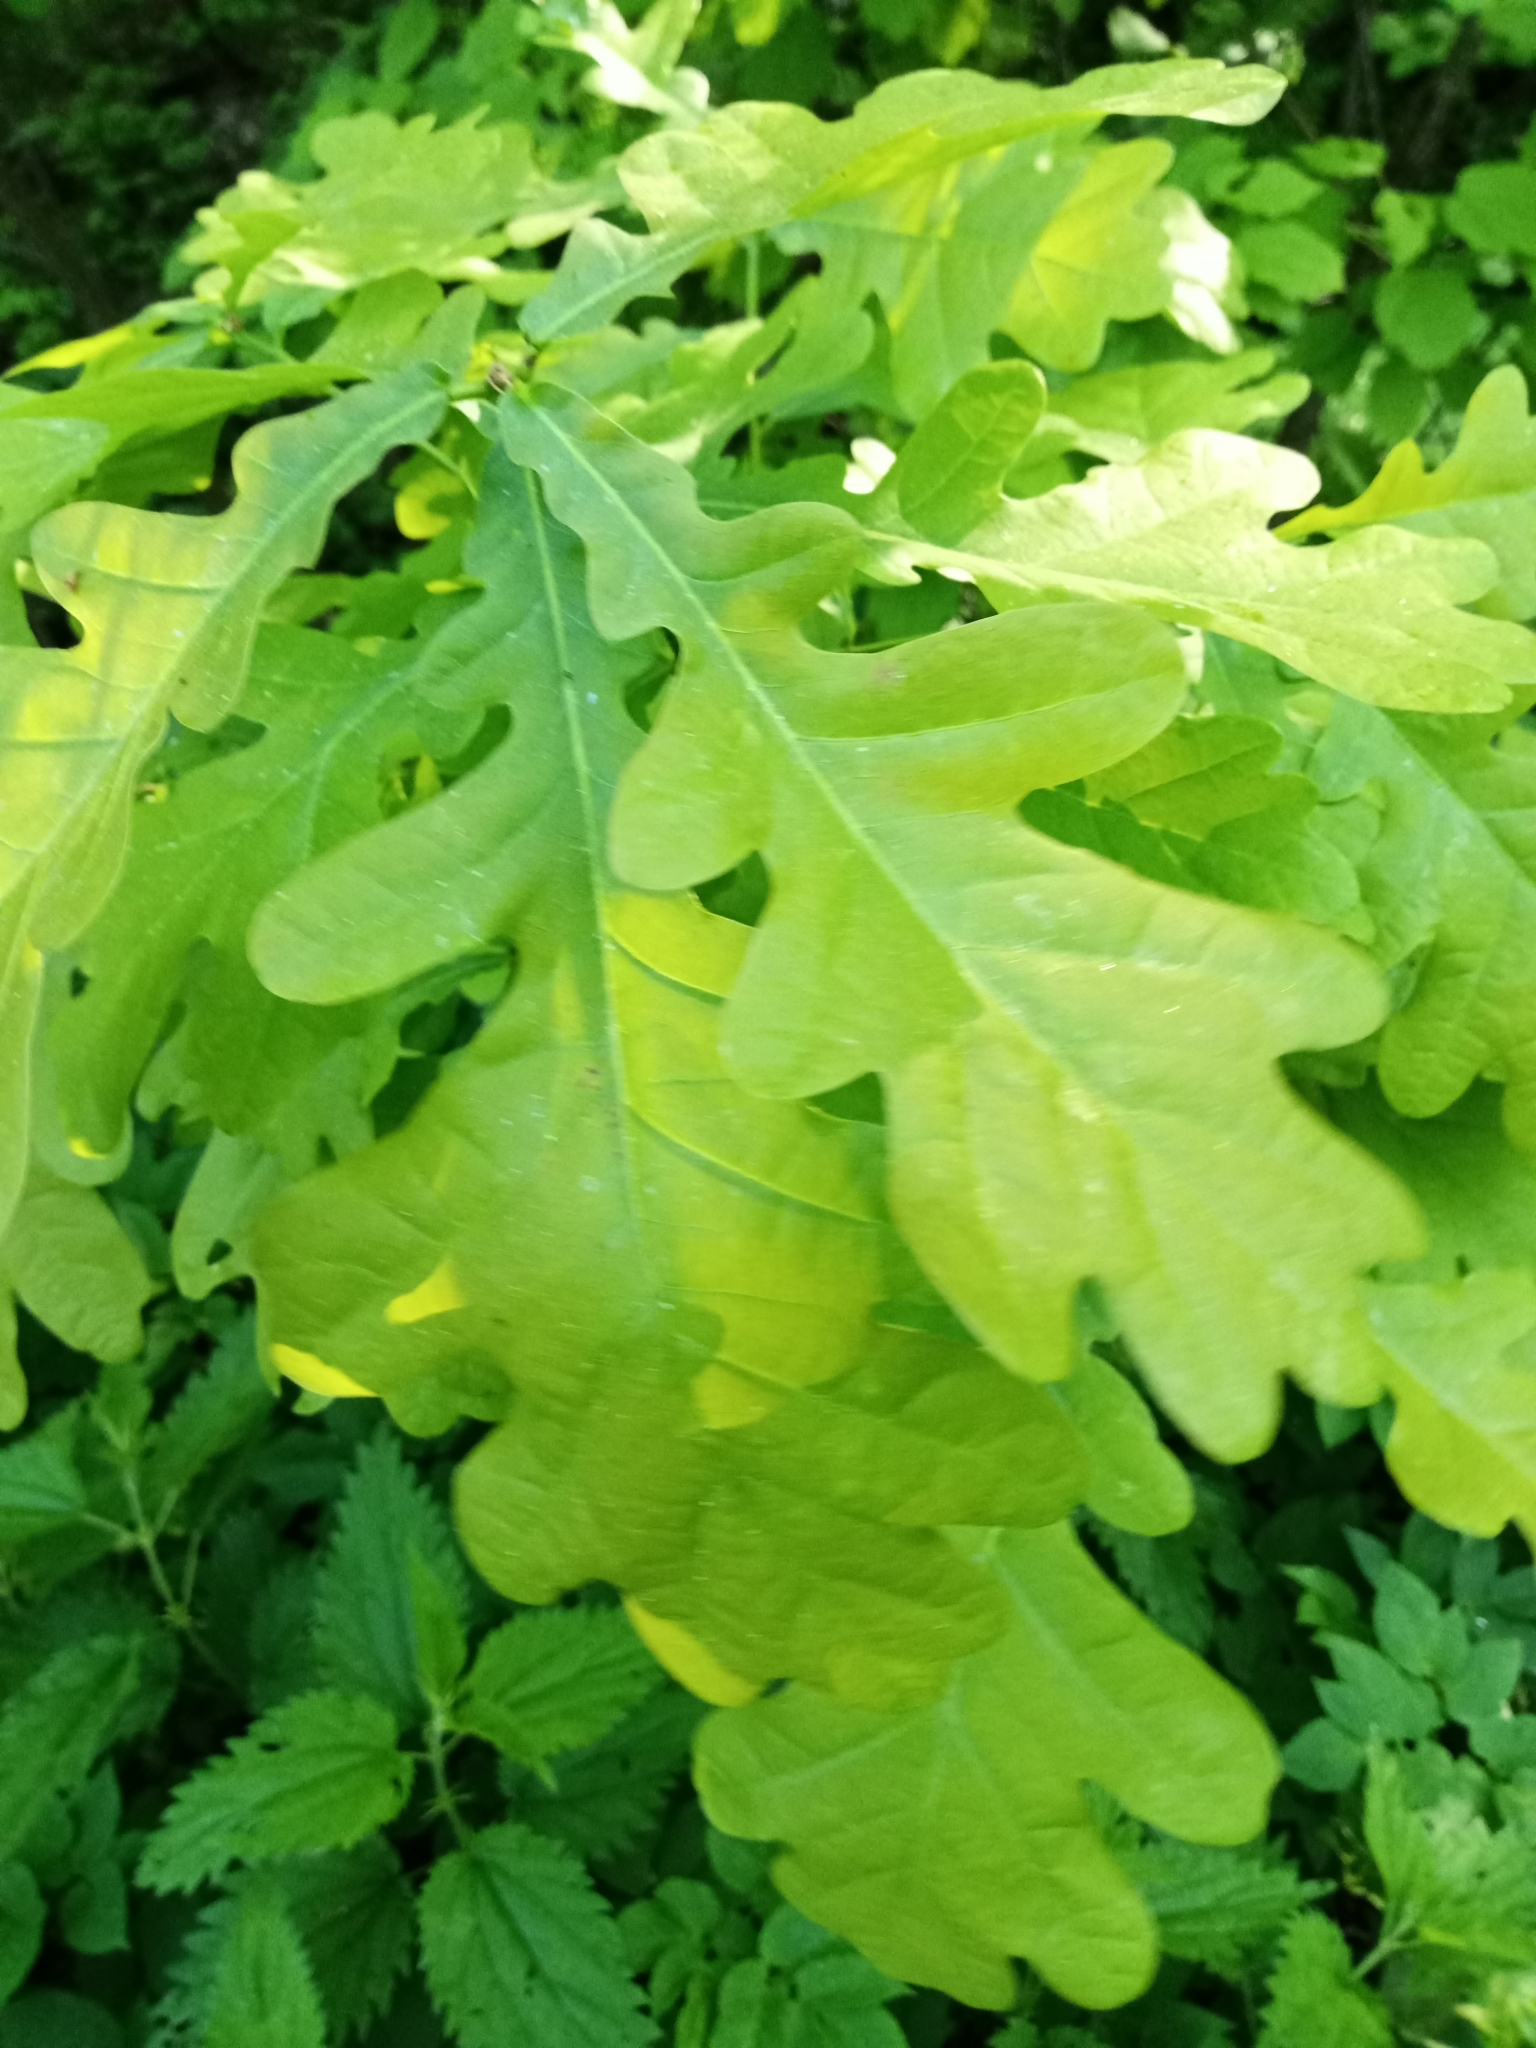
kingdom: Plantae
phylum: Tracheophyta
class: Magnoliopsida
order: Fagales
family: Fagaceae
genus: Quercus
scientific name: Quercus robur
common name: Pedunculate oak
